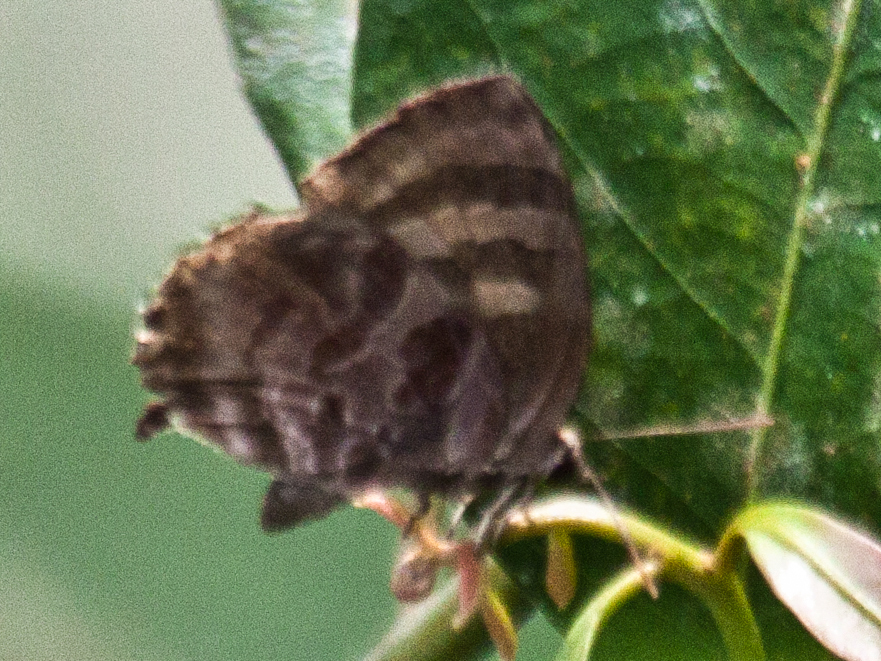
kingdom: Animalia
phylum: Arthropoda
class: Insecta
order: Lepidoptera
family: Lycaenidae
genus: Flos
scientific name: Flos
